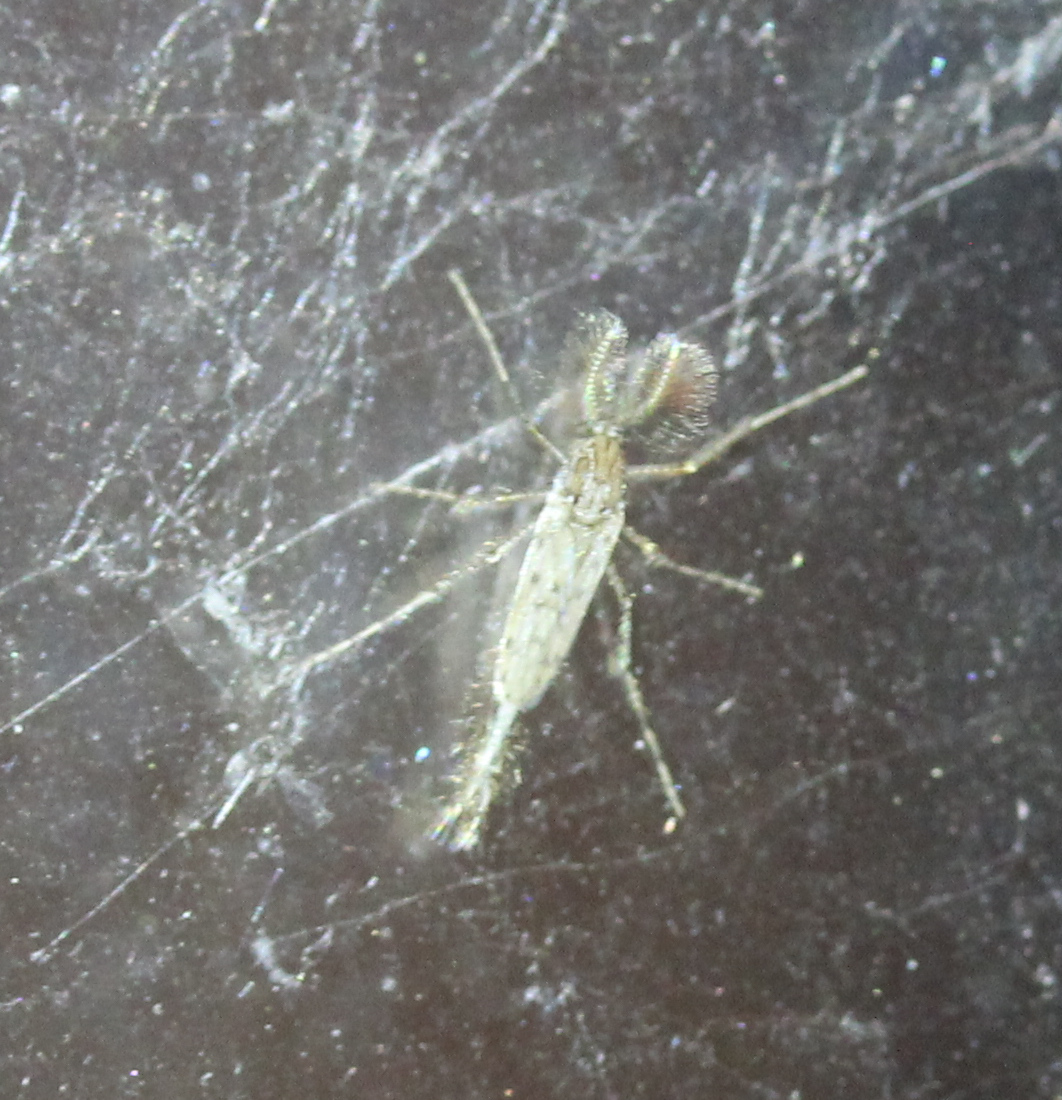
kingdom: Animalia
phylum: Arthropoda
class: Insecta
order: Diptera
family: Chaoboridae
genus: Chaoborus
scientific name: Chaoborus punctipennis
